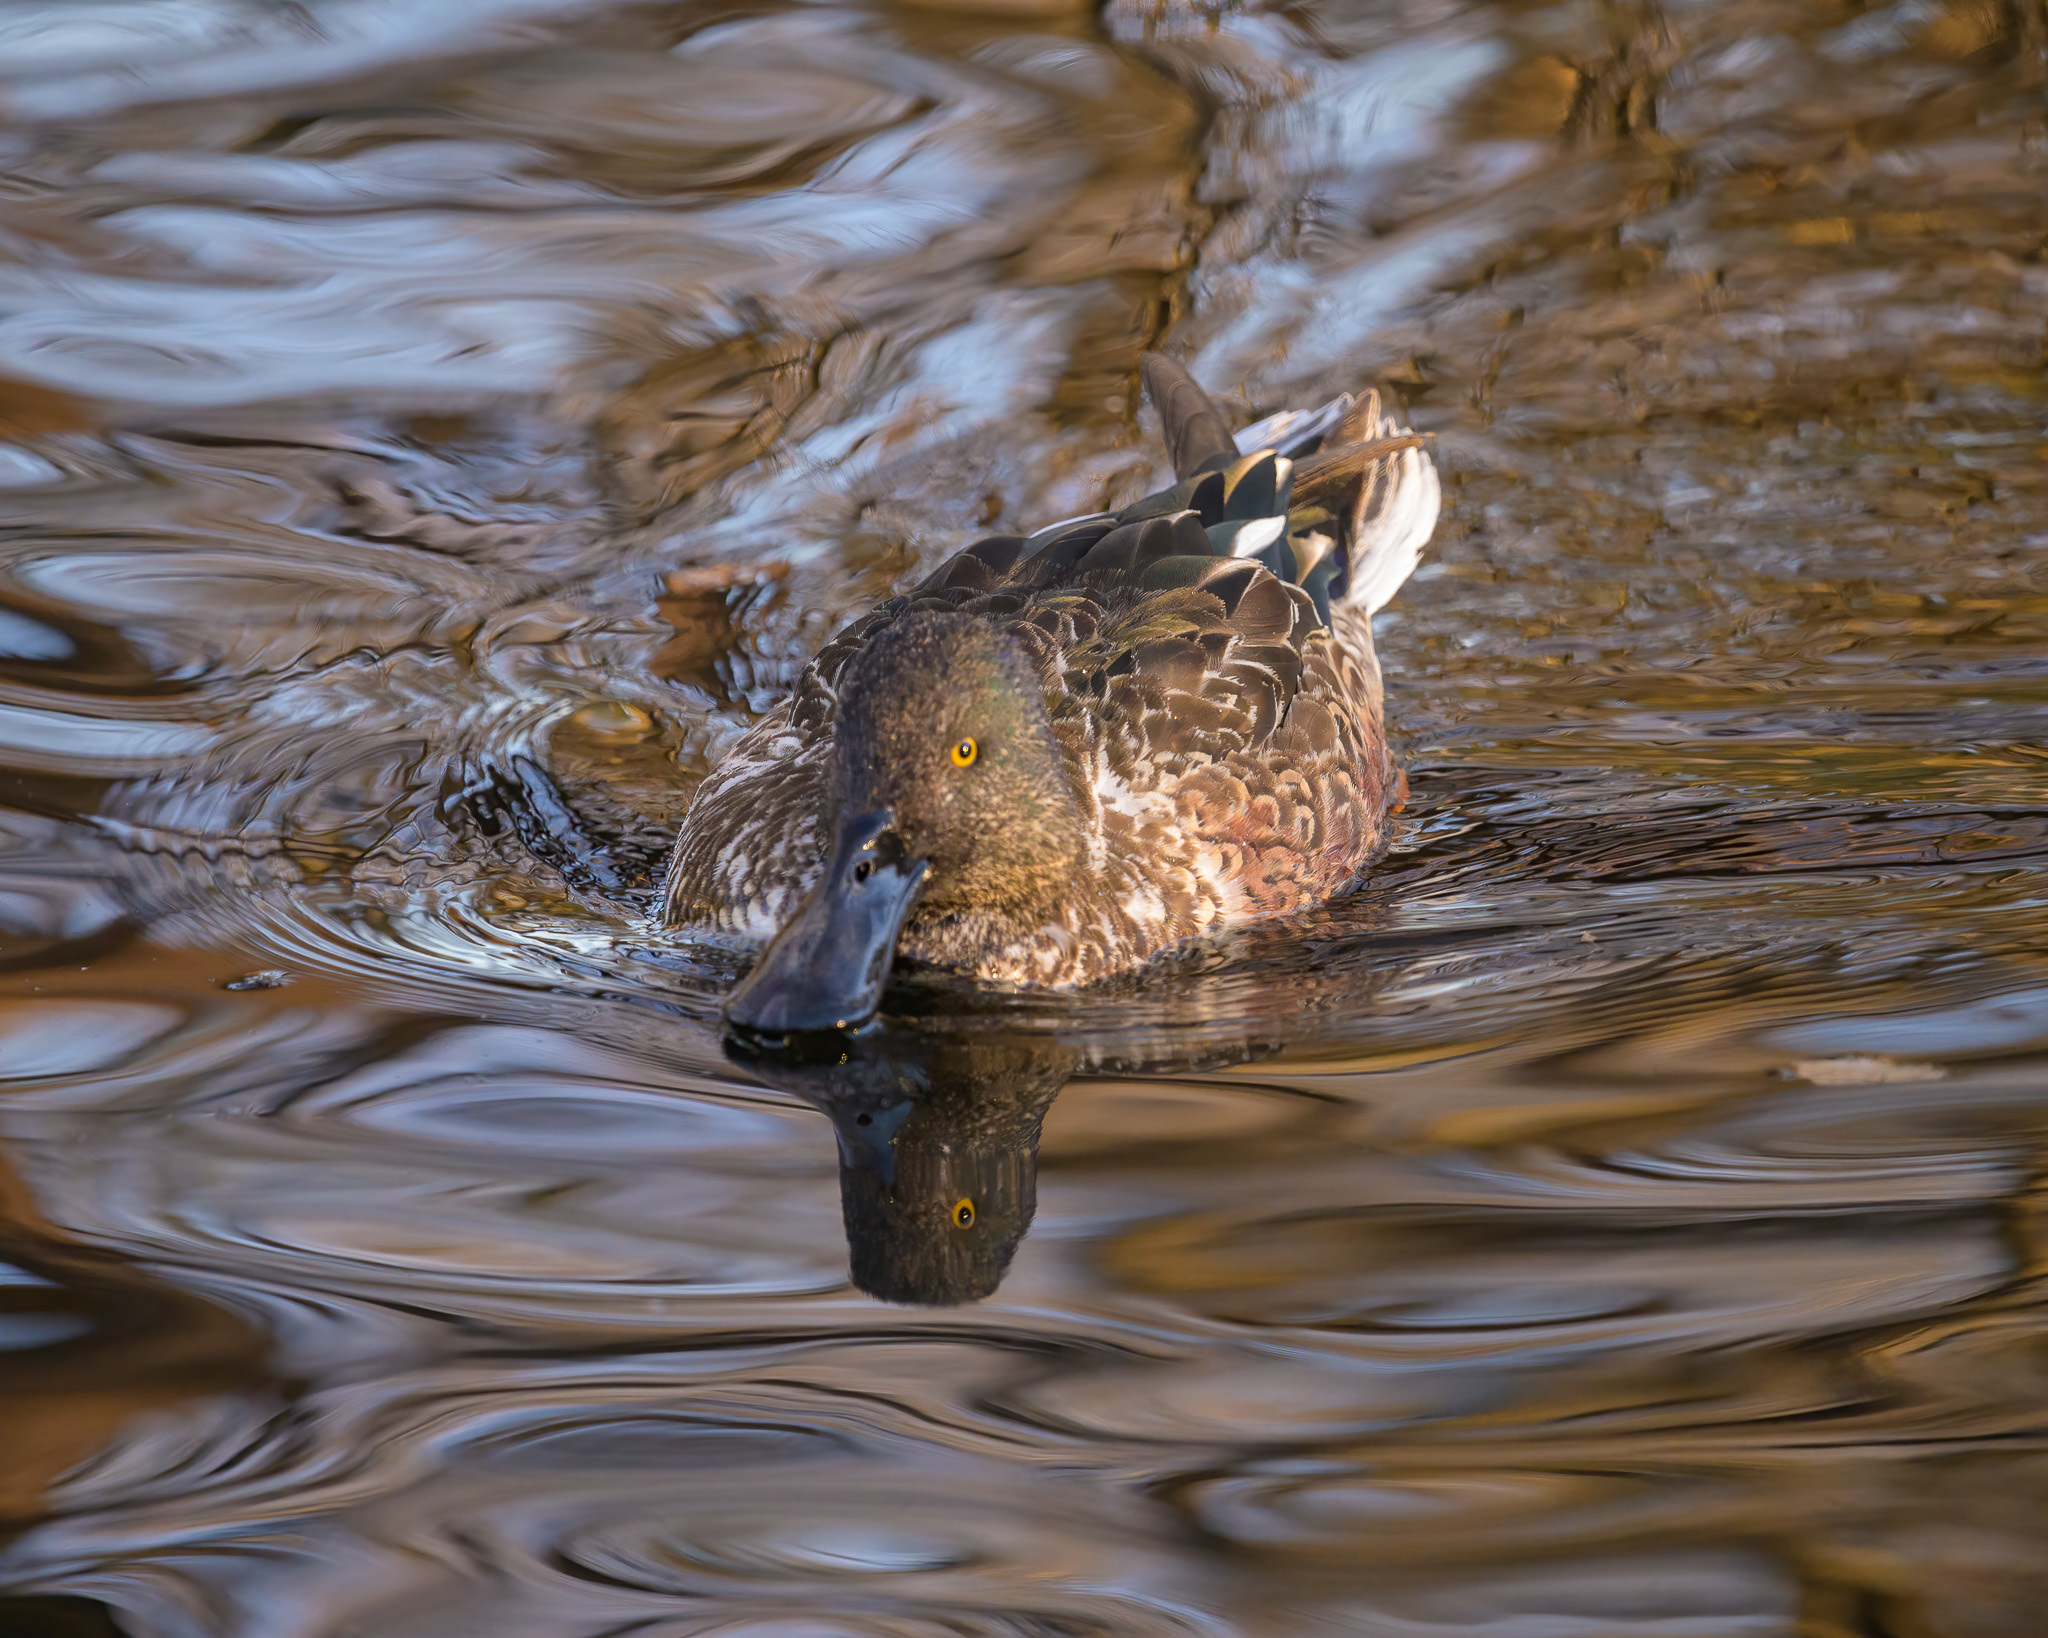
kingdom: Animalia
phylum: Chordata
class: Aves
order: Anseriformes
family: Anatidae
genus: Spatula
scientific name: Spatula clypeata
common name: Northern shoveler
